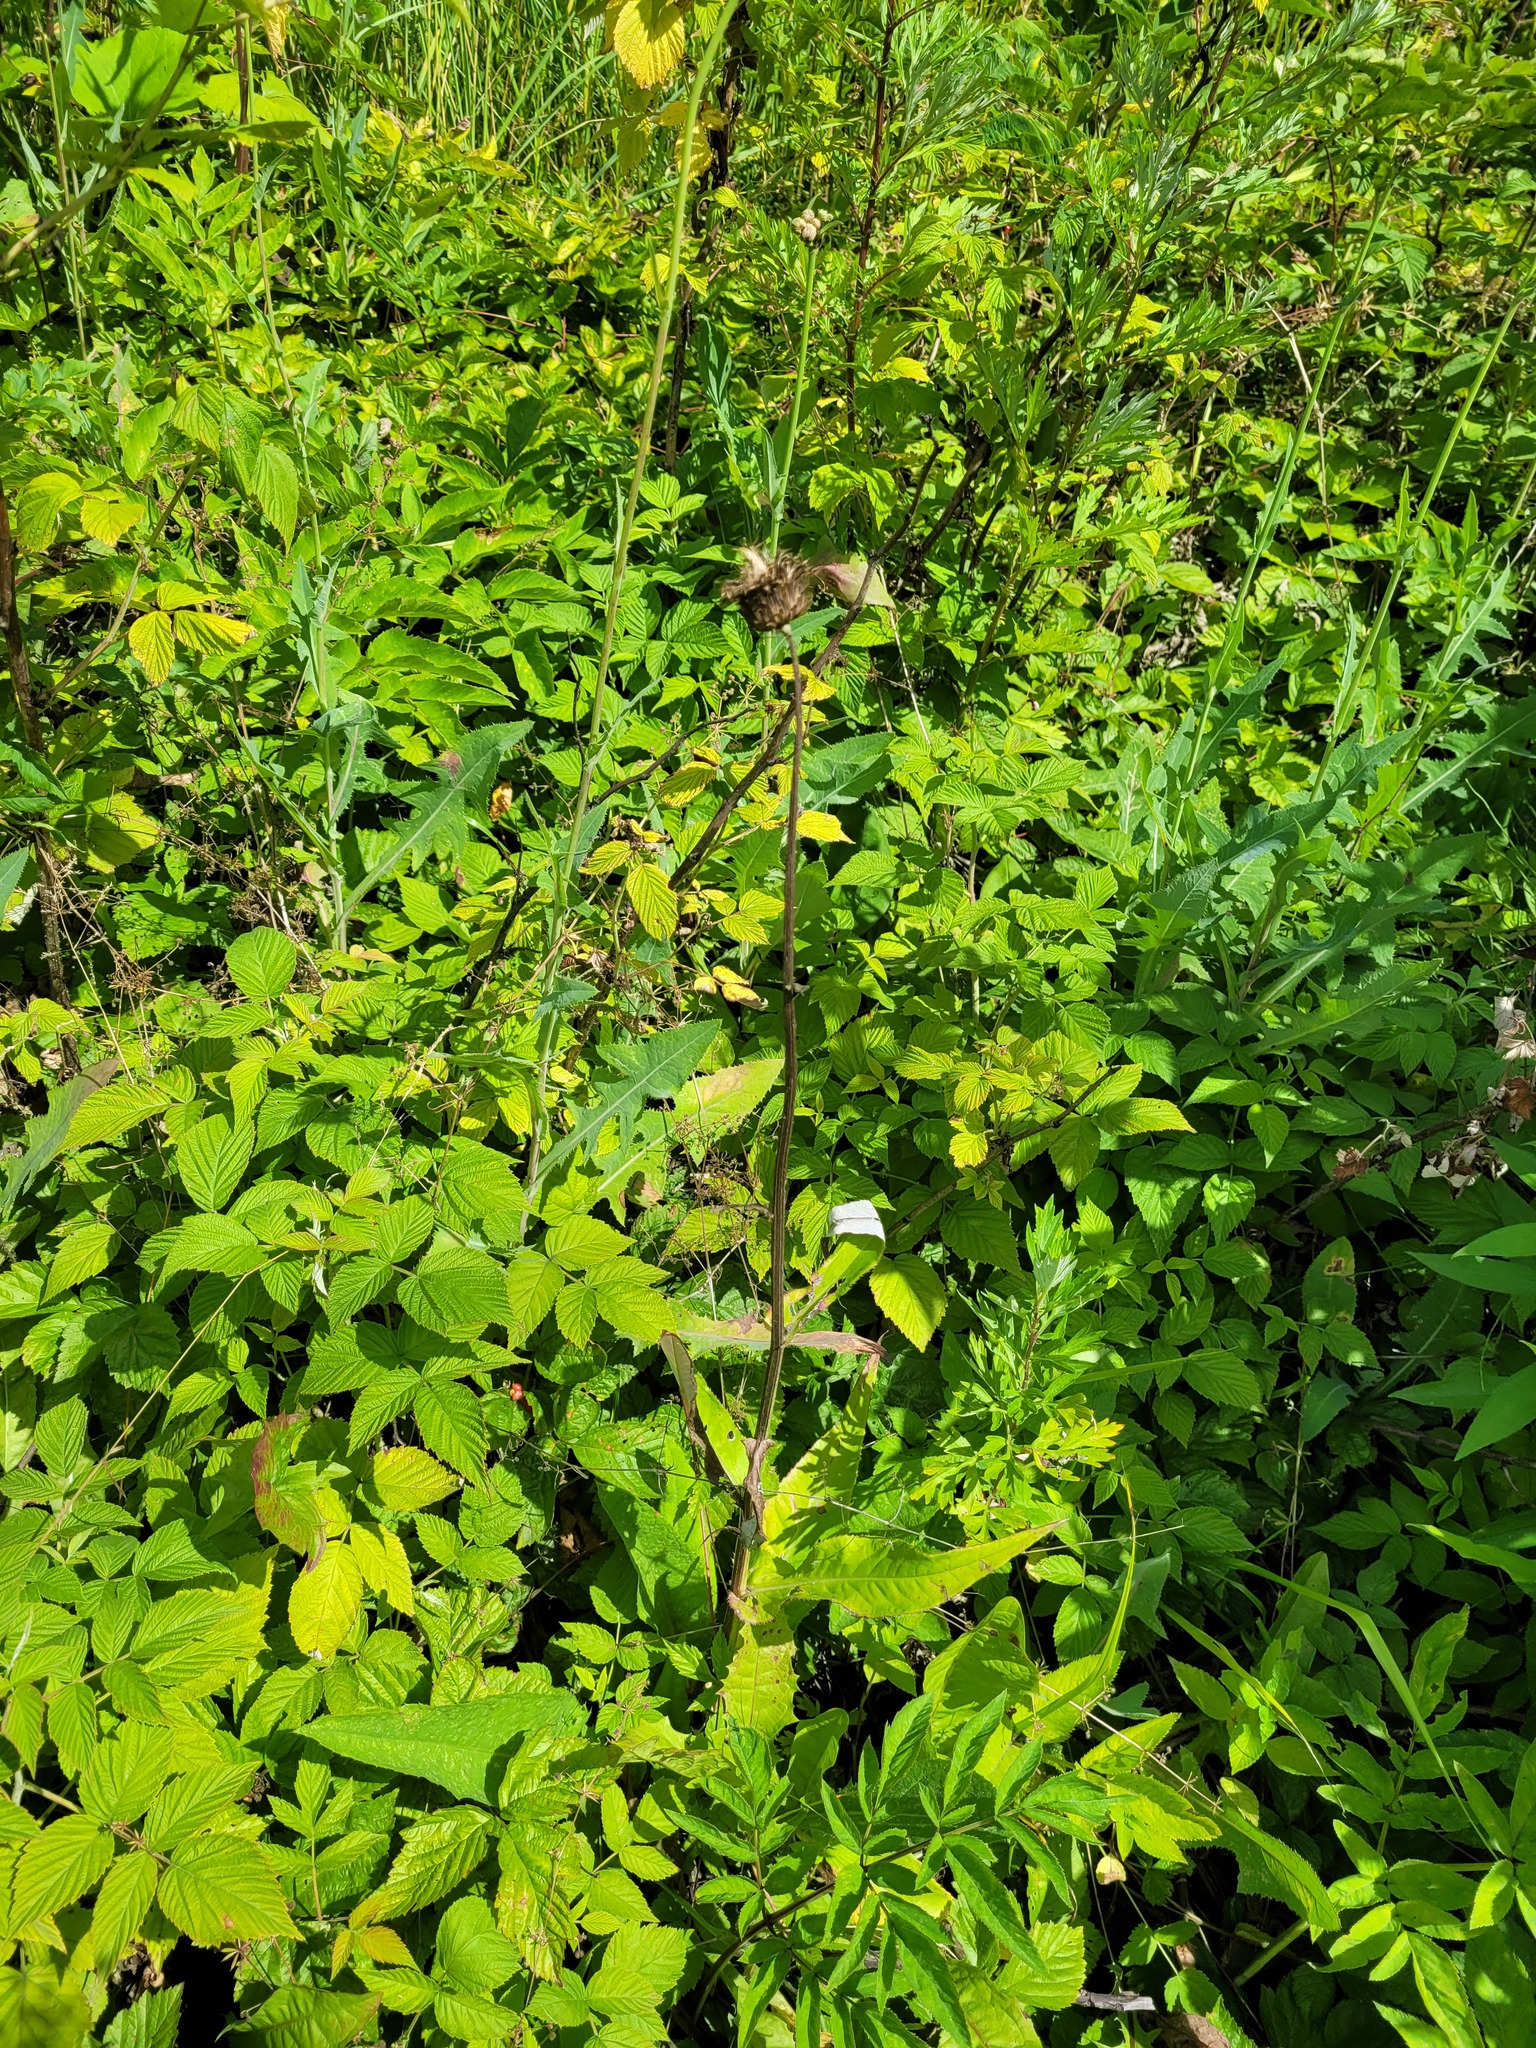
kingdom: Plantae
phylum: Tracheophyta
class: Magnoliopsida
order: Asterales
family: Asteraceae
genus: Cirsium
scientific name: Cirsium heterophyllum
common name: Melancholy thistle
